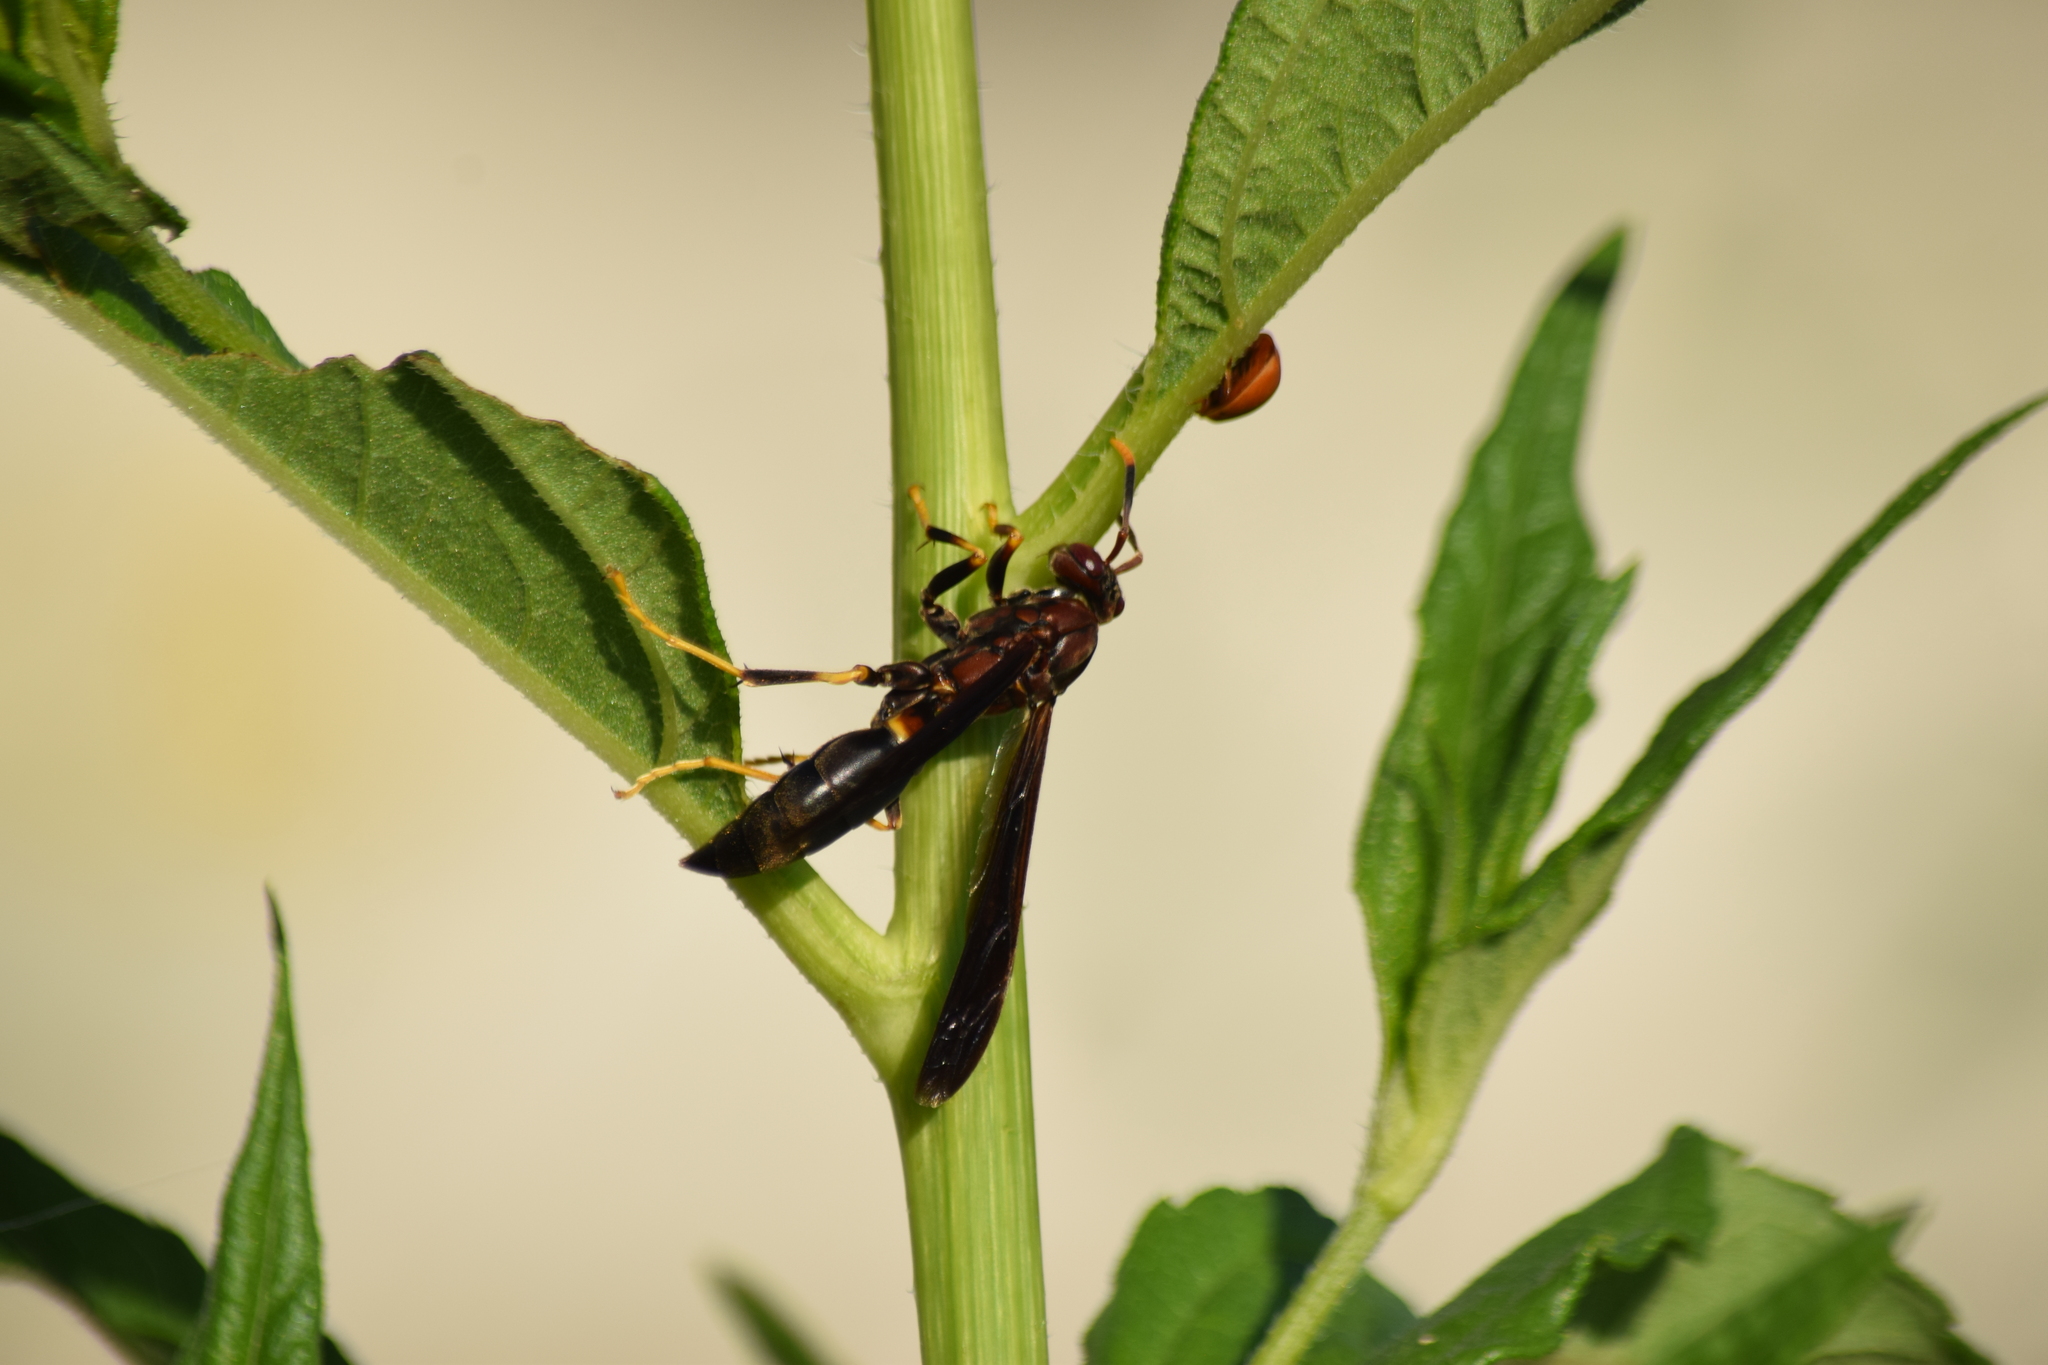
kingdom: Animalia
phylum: Arthropoda
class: Insecta
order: Hymenoptera
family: Eumenidae
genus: Polistes
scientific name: Polistes annularis
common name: Ringed paper wasp
